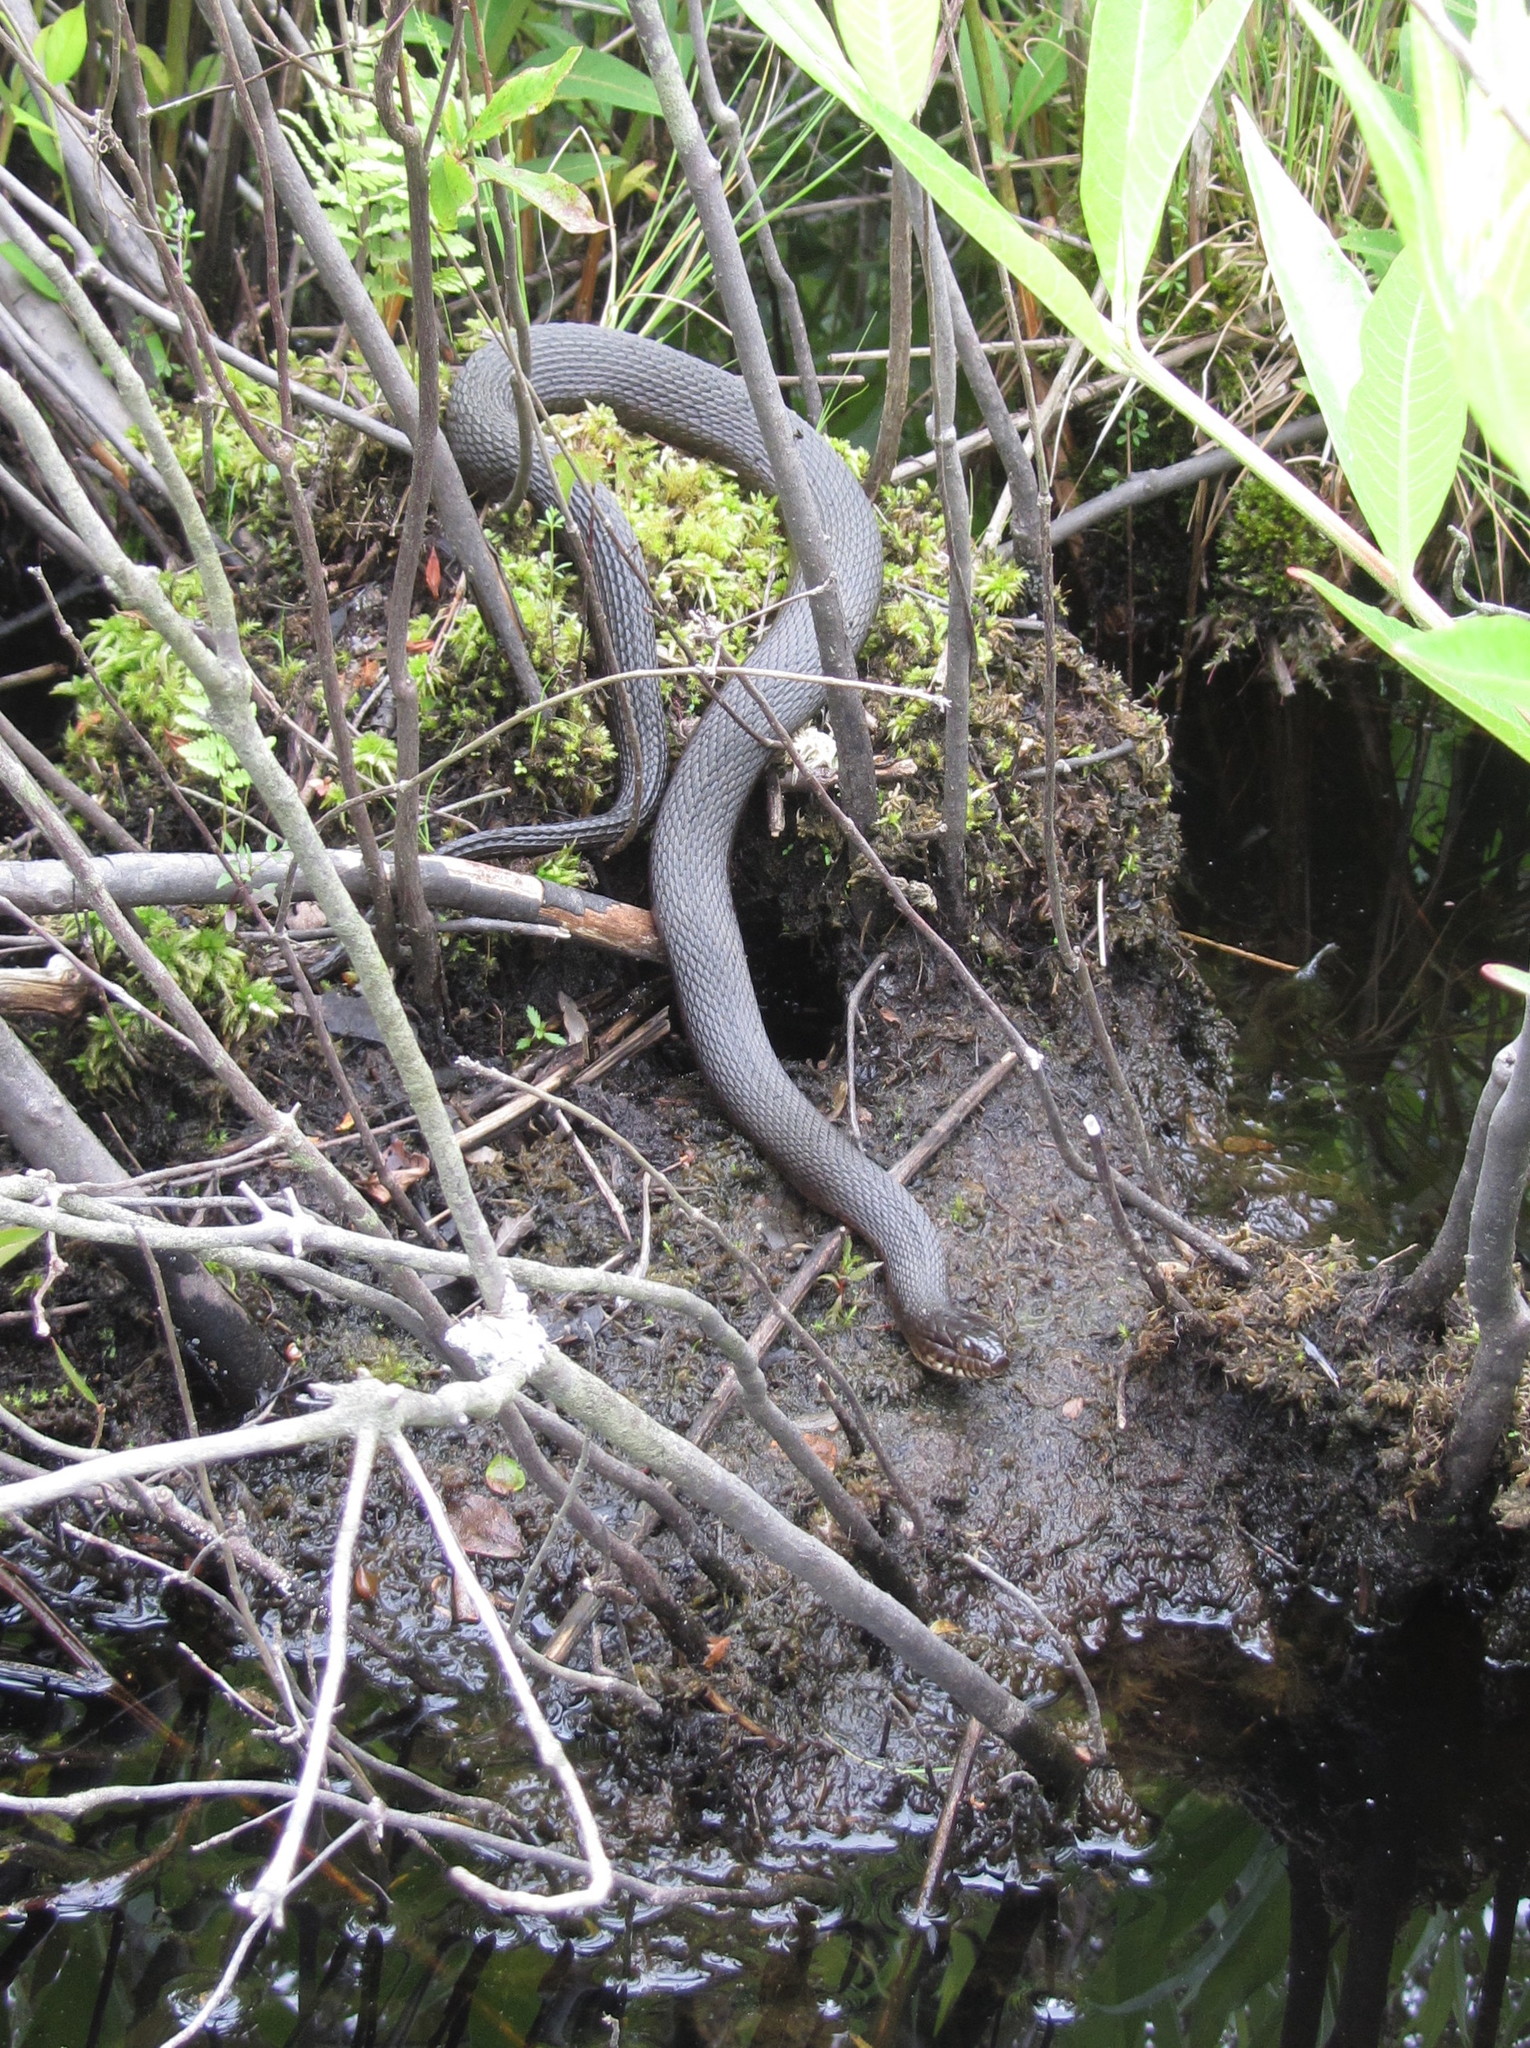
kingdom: Animalia
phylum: Chordata
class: Squamata
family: Colubridae
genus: Nerodia
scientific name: Nerodia sipedon
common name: Northern water snake
